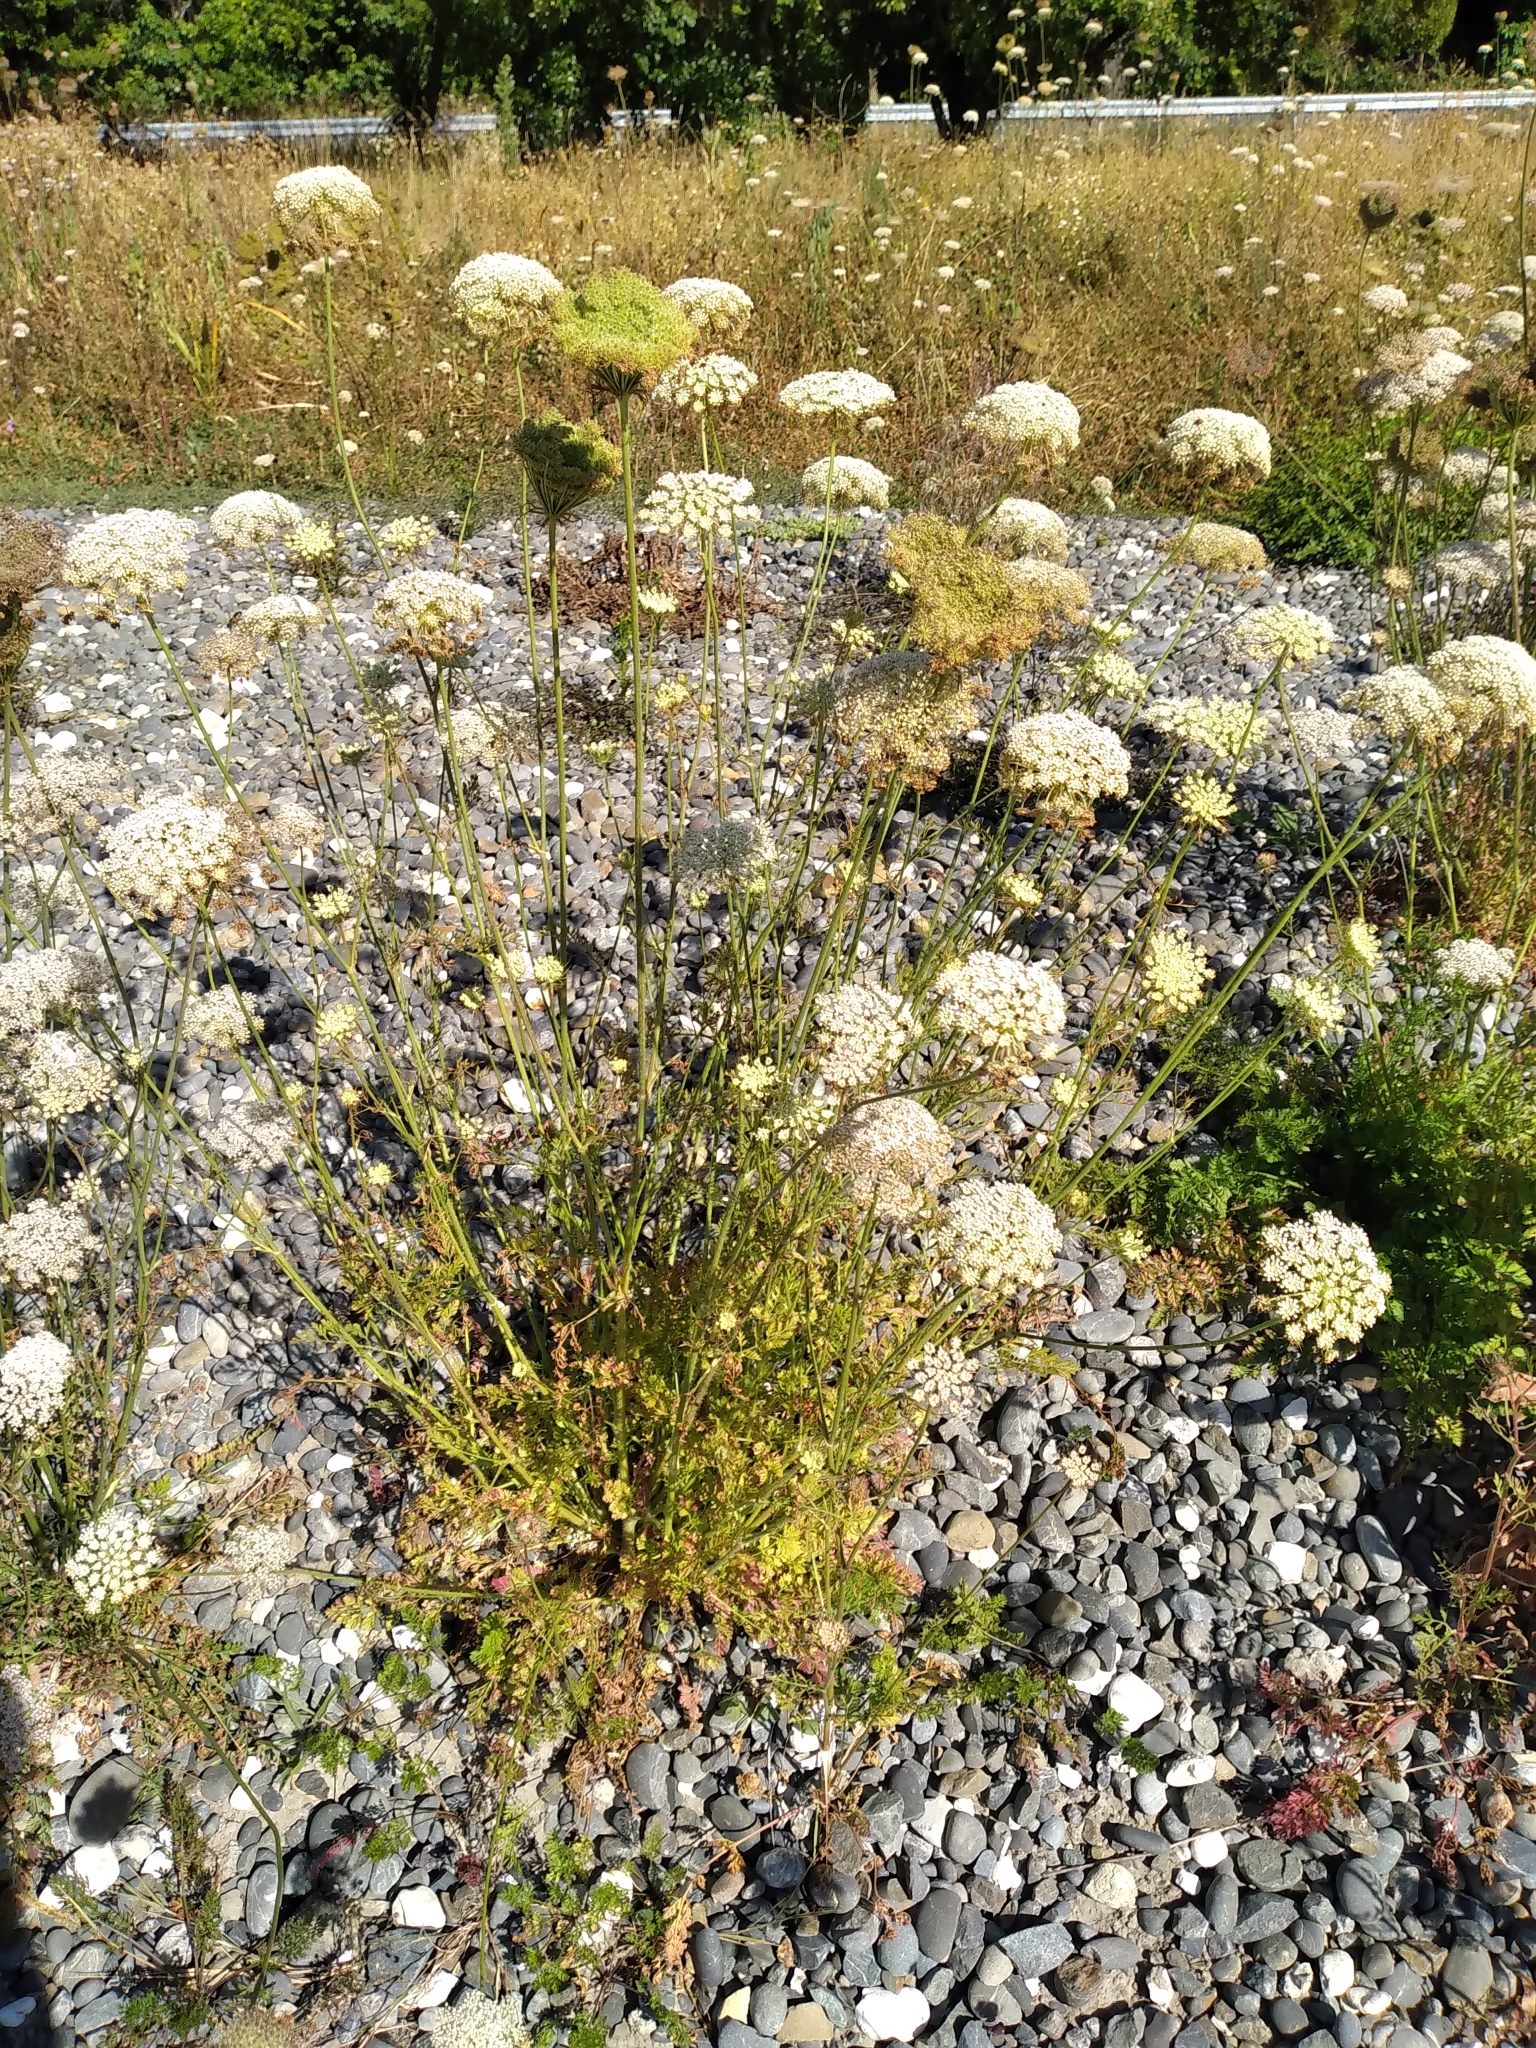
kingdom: Plantae
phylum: Tracheophyta
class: Magnoliopsida
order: Apiales
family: Apiaceae
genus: Daucus
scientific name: Daucus carota
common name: Wild carrot
